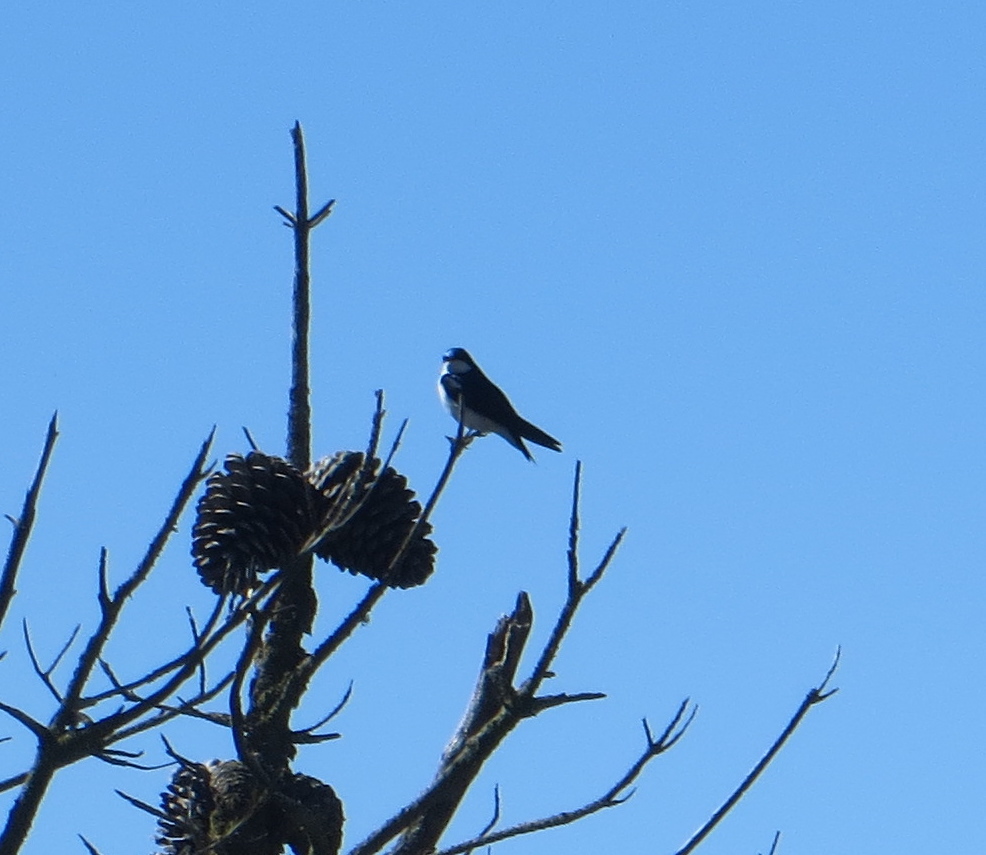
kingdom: Animalia
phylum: Chordata
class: Aves
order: Passeriformes
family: Hirundinidae
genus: Tachycineta
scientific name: Tachycineta bicolor
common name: Tree swallow
